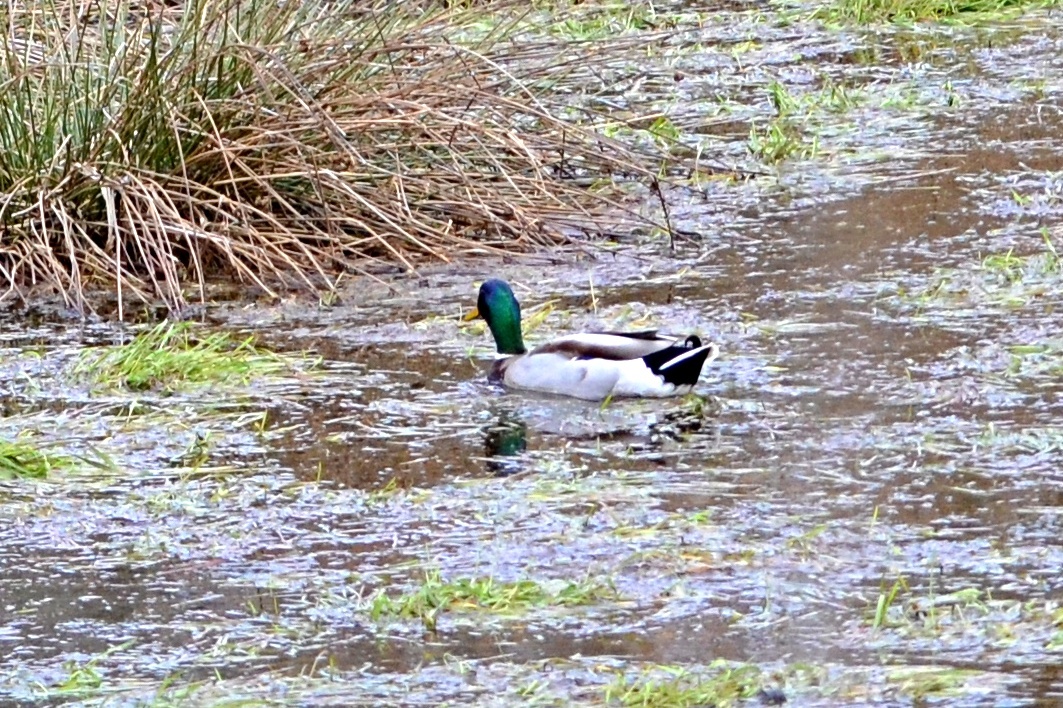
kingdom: Animalia
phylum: Chordata
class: Aves
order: Anseriformes
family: Anatidae
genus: Anas
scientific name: Anas platyrhynchos
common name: Mallard
